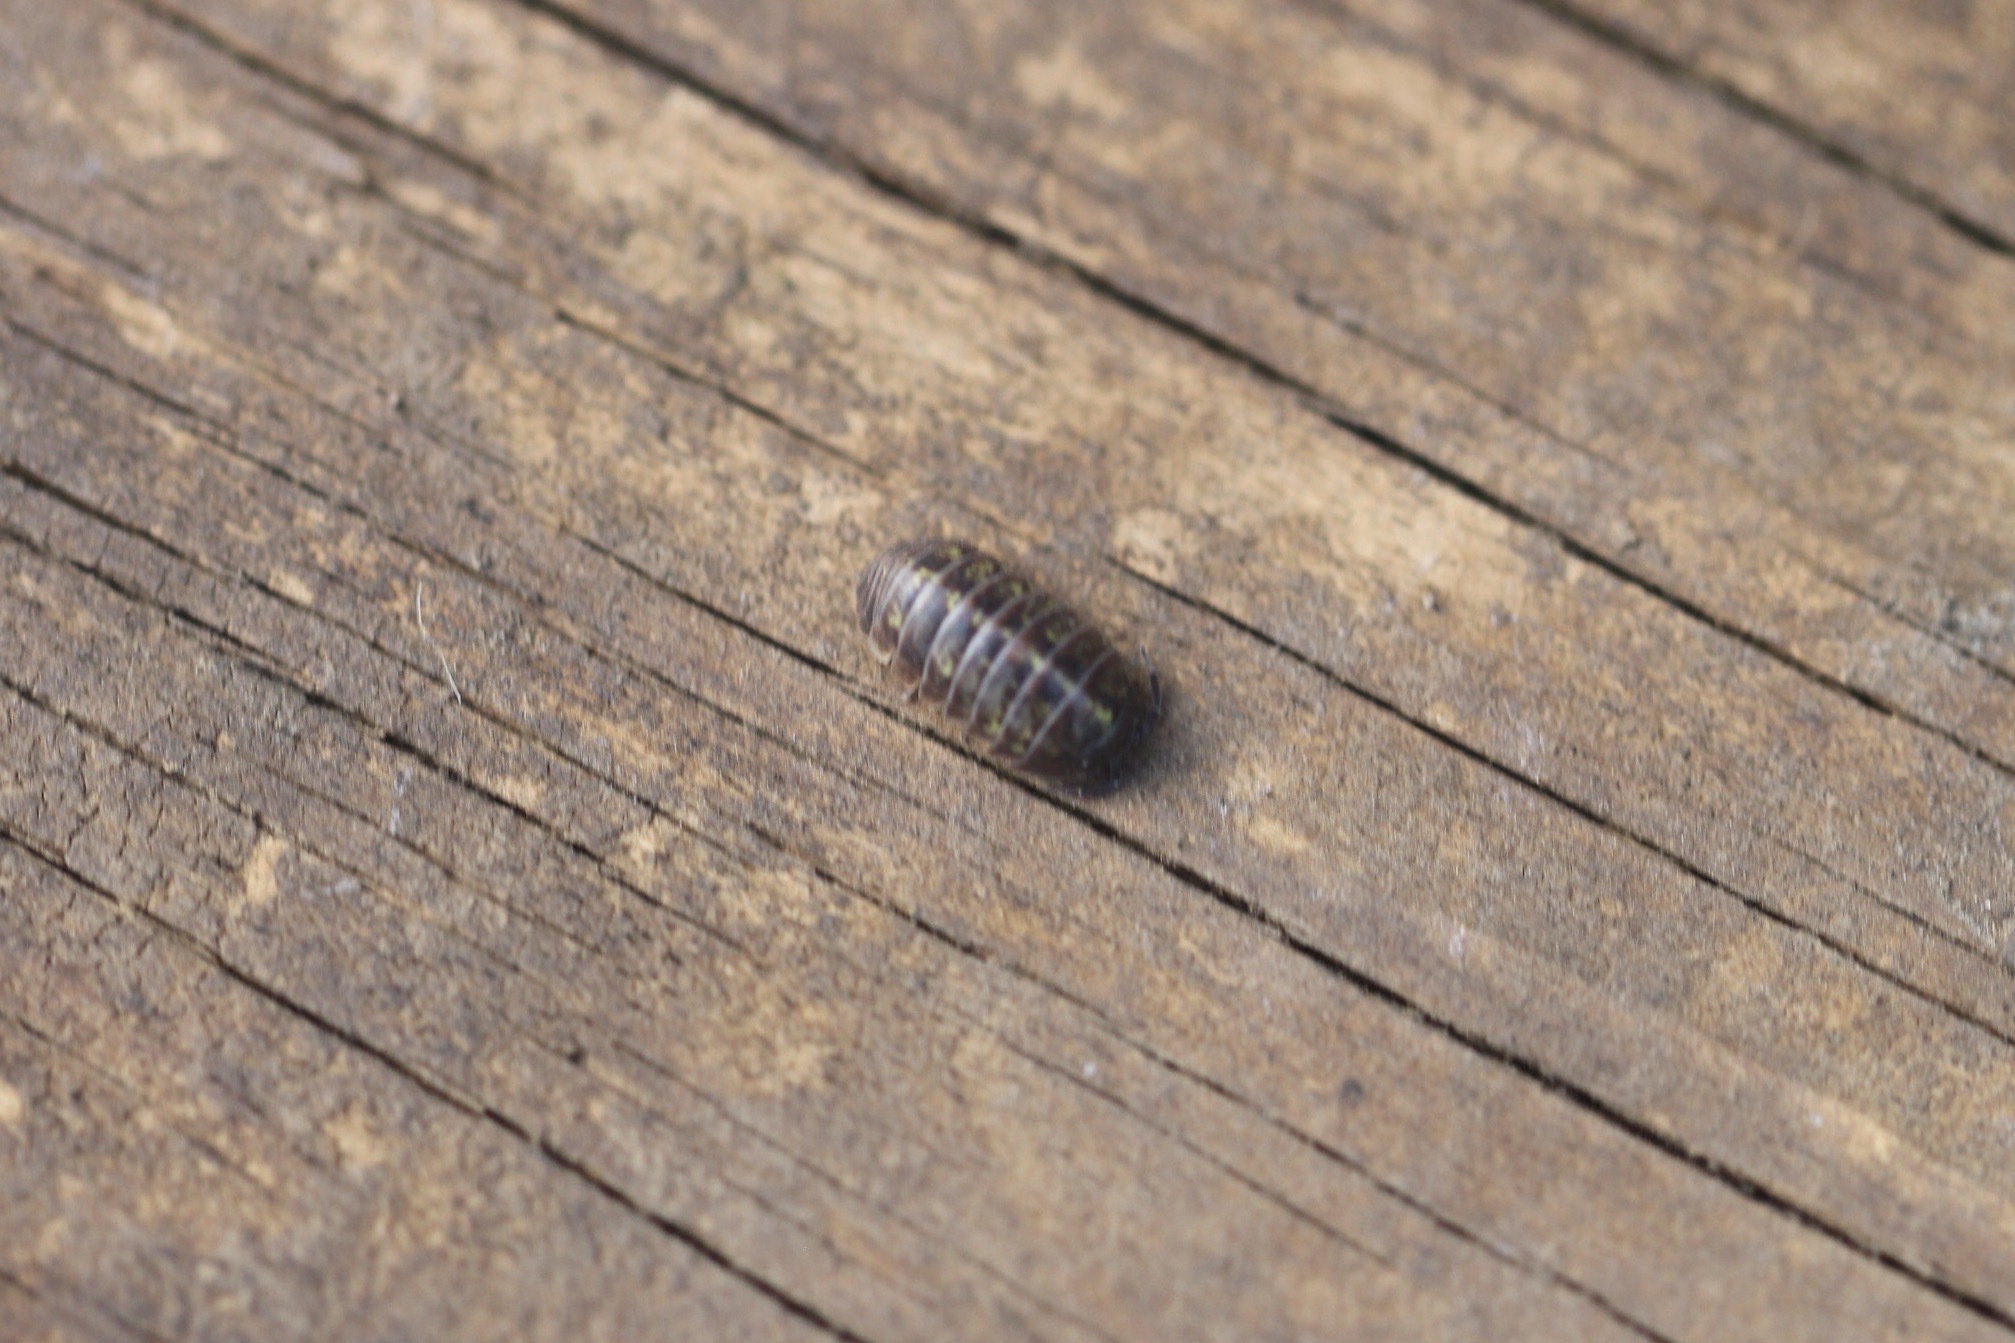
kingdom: Animalia
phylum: Arthropoda
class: Malacostraca
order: Isopoda
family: Armadillidiidae
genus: Armadillidium
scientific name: Armadillidium vulgare
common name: Common pill woodlouse
